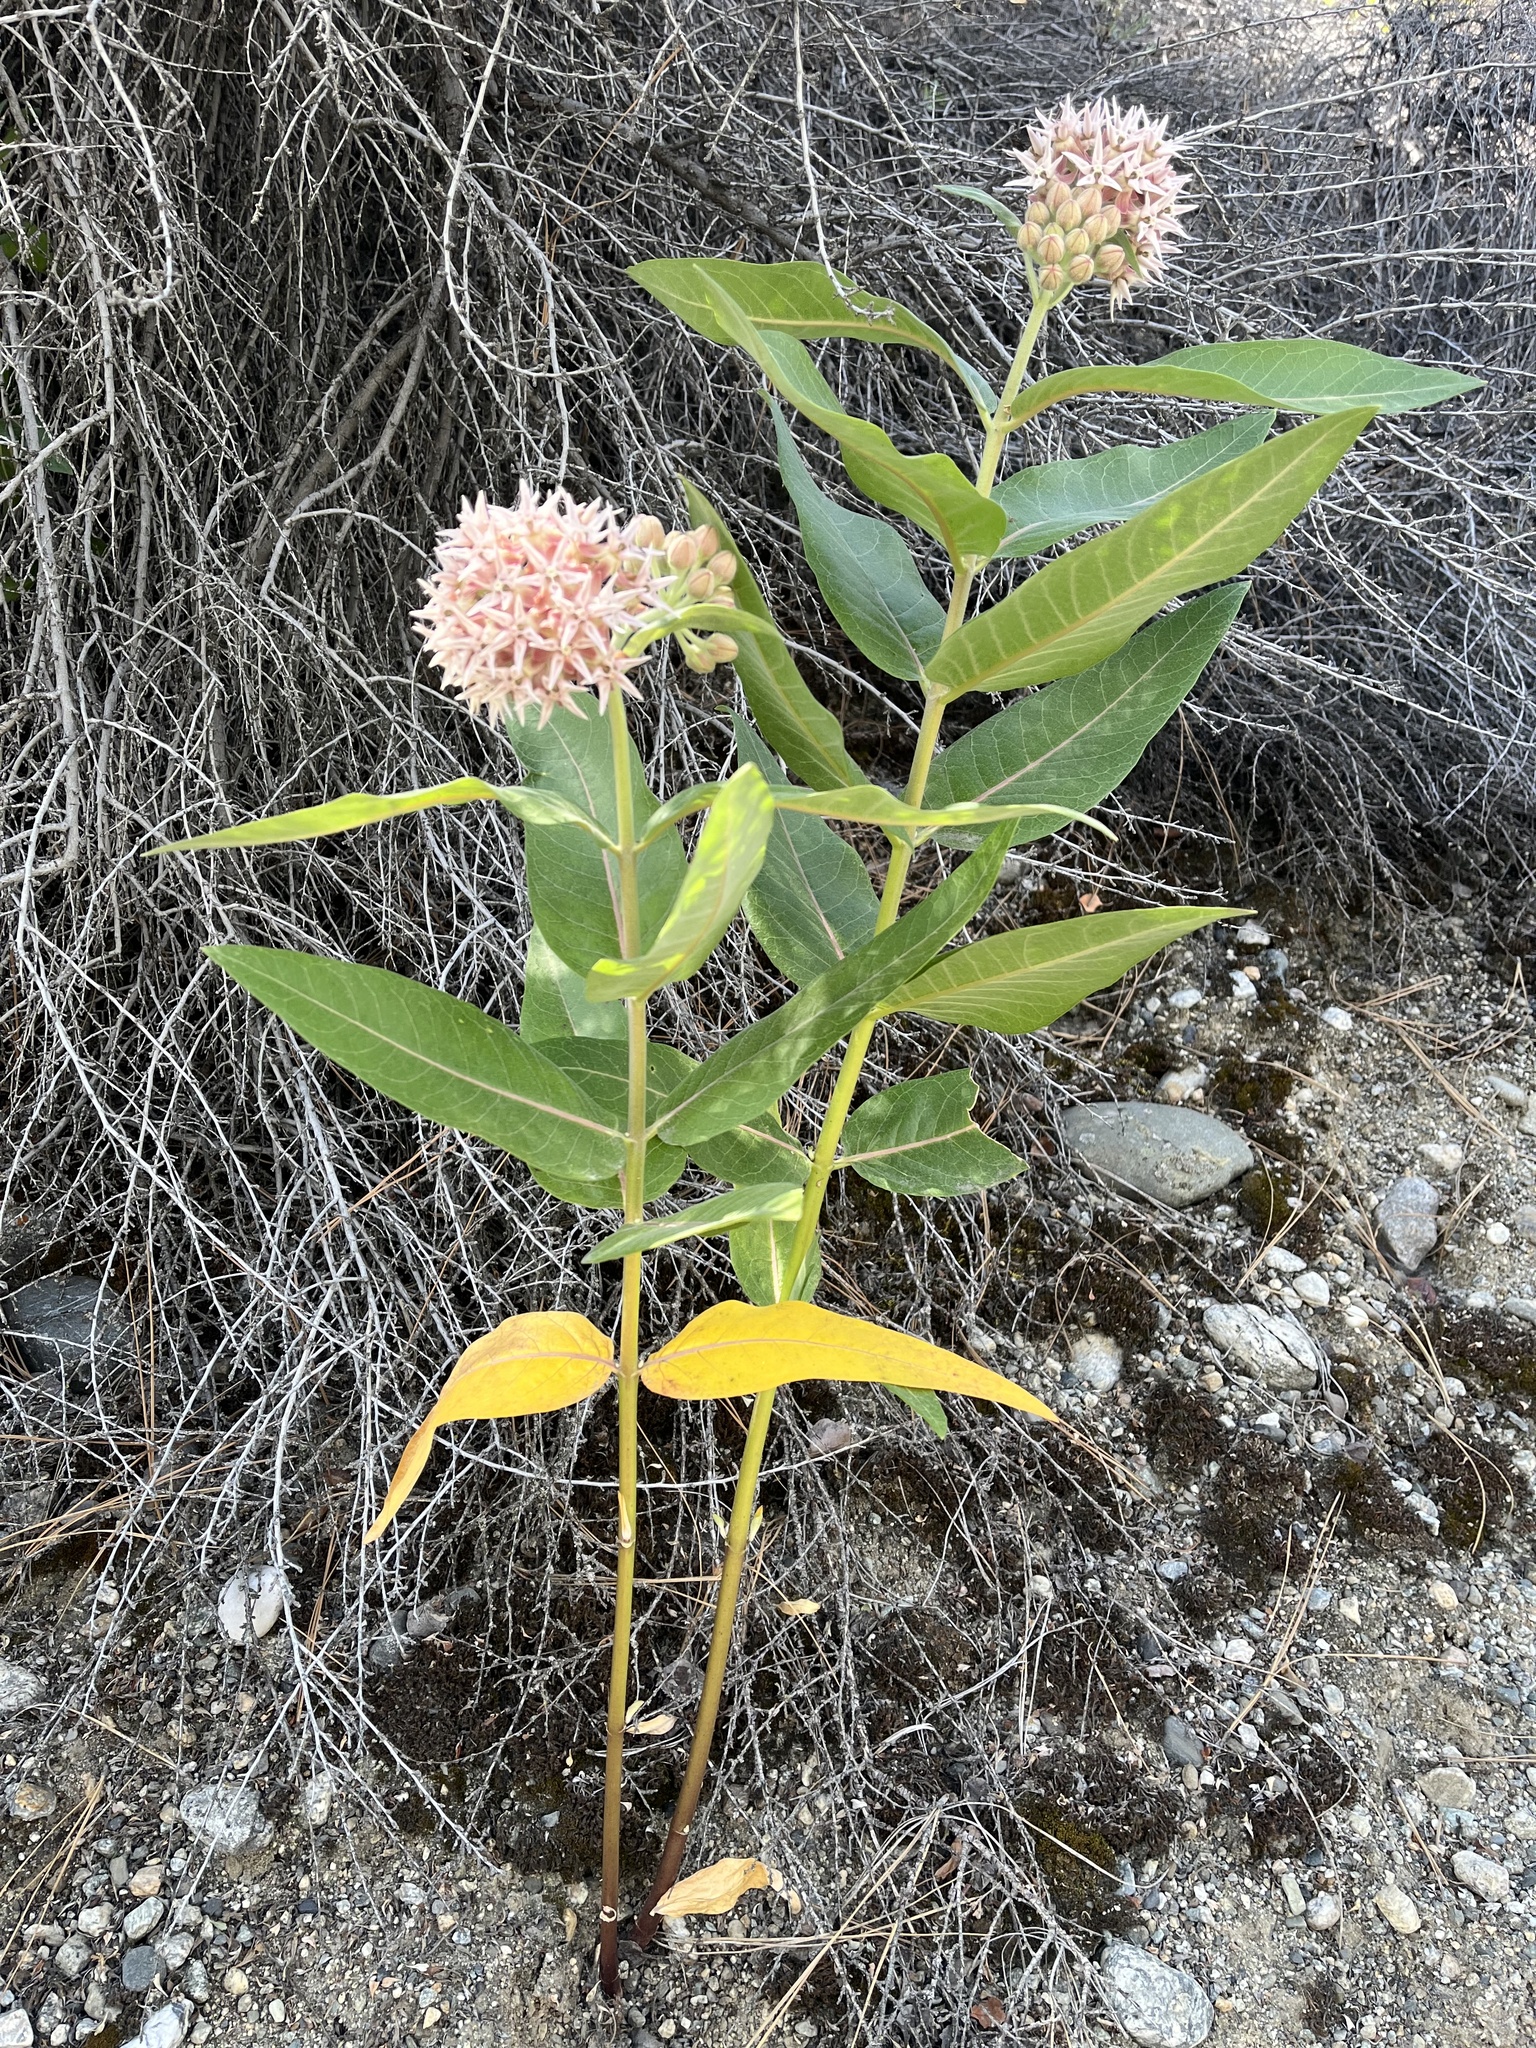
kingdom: Plantae
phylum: Tracheophyta
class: Magnoliopsida
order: Gentianales
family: Apocynaceae
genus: Asclepias
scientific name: Asclepias speciosa
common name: Showy milkweed
